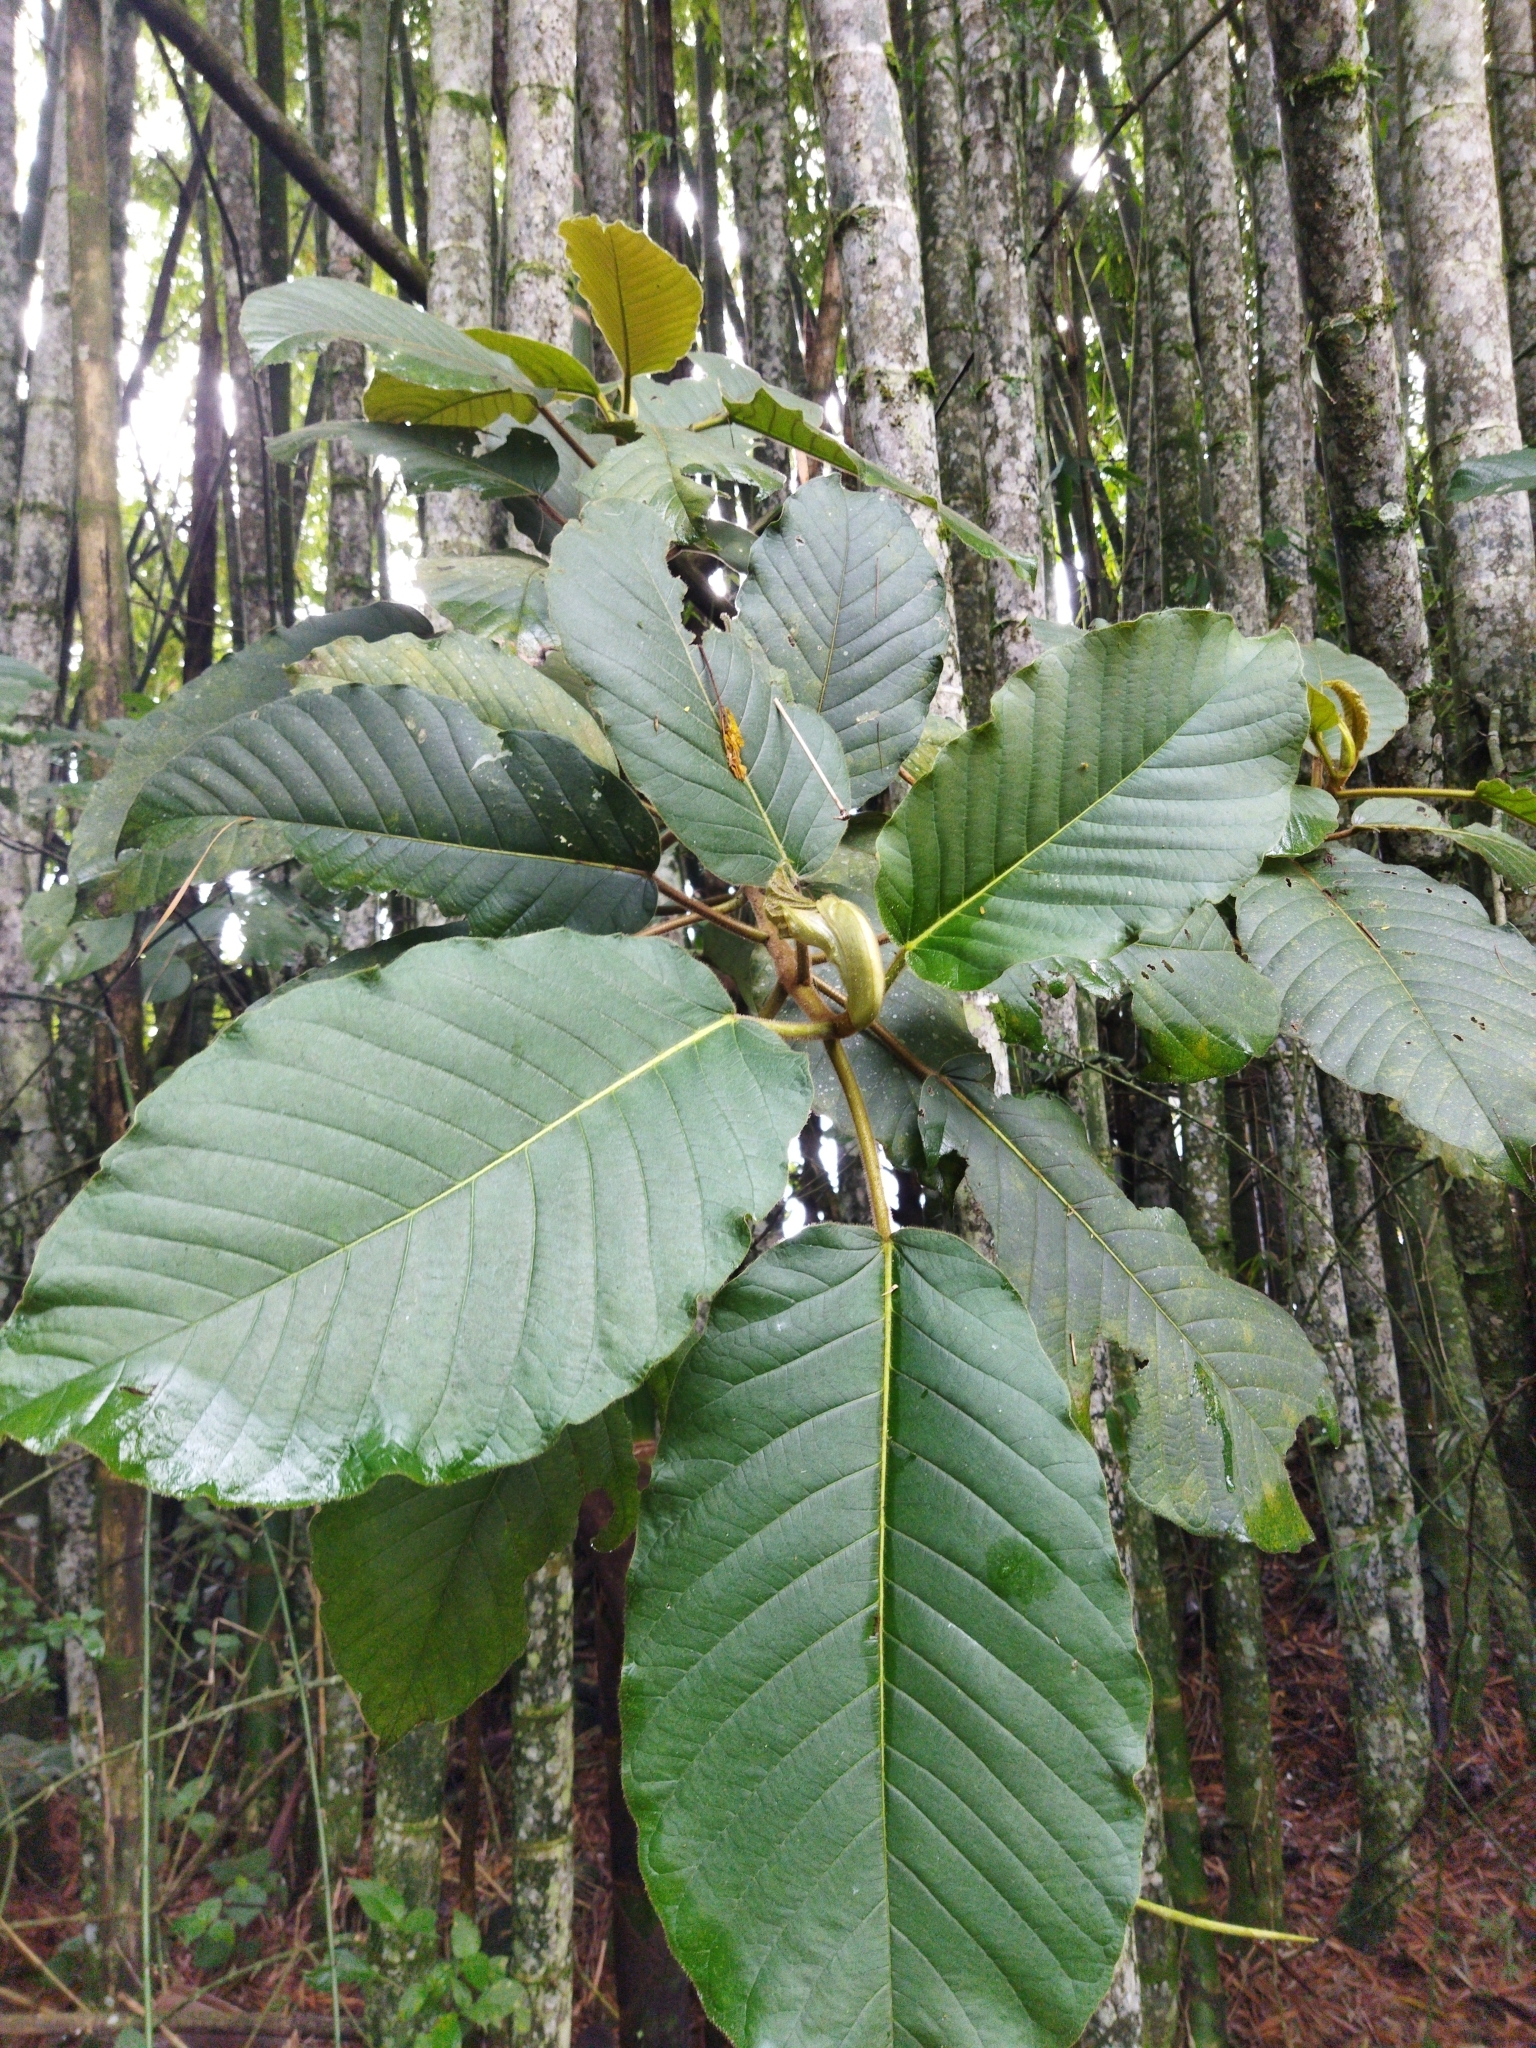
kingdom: Plantae
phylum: Tracheophyta
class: Magnoliopsida
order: Rosales
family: Moraceae
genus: Ficus
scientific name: Ficus tequendamae
